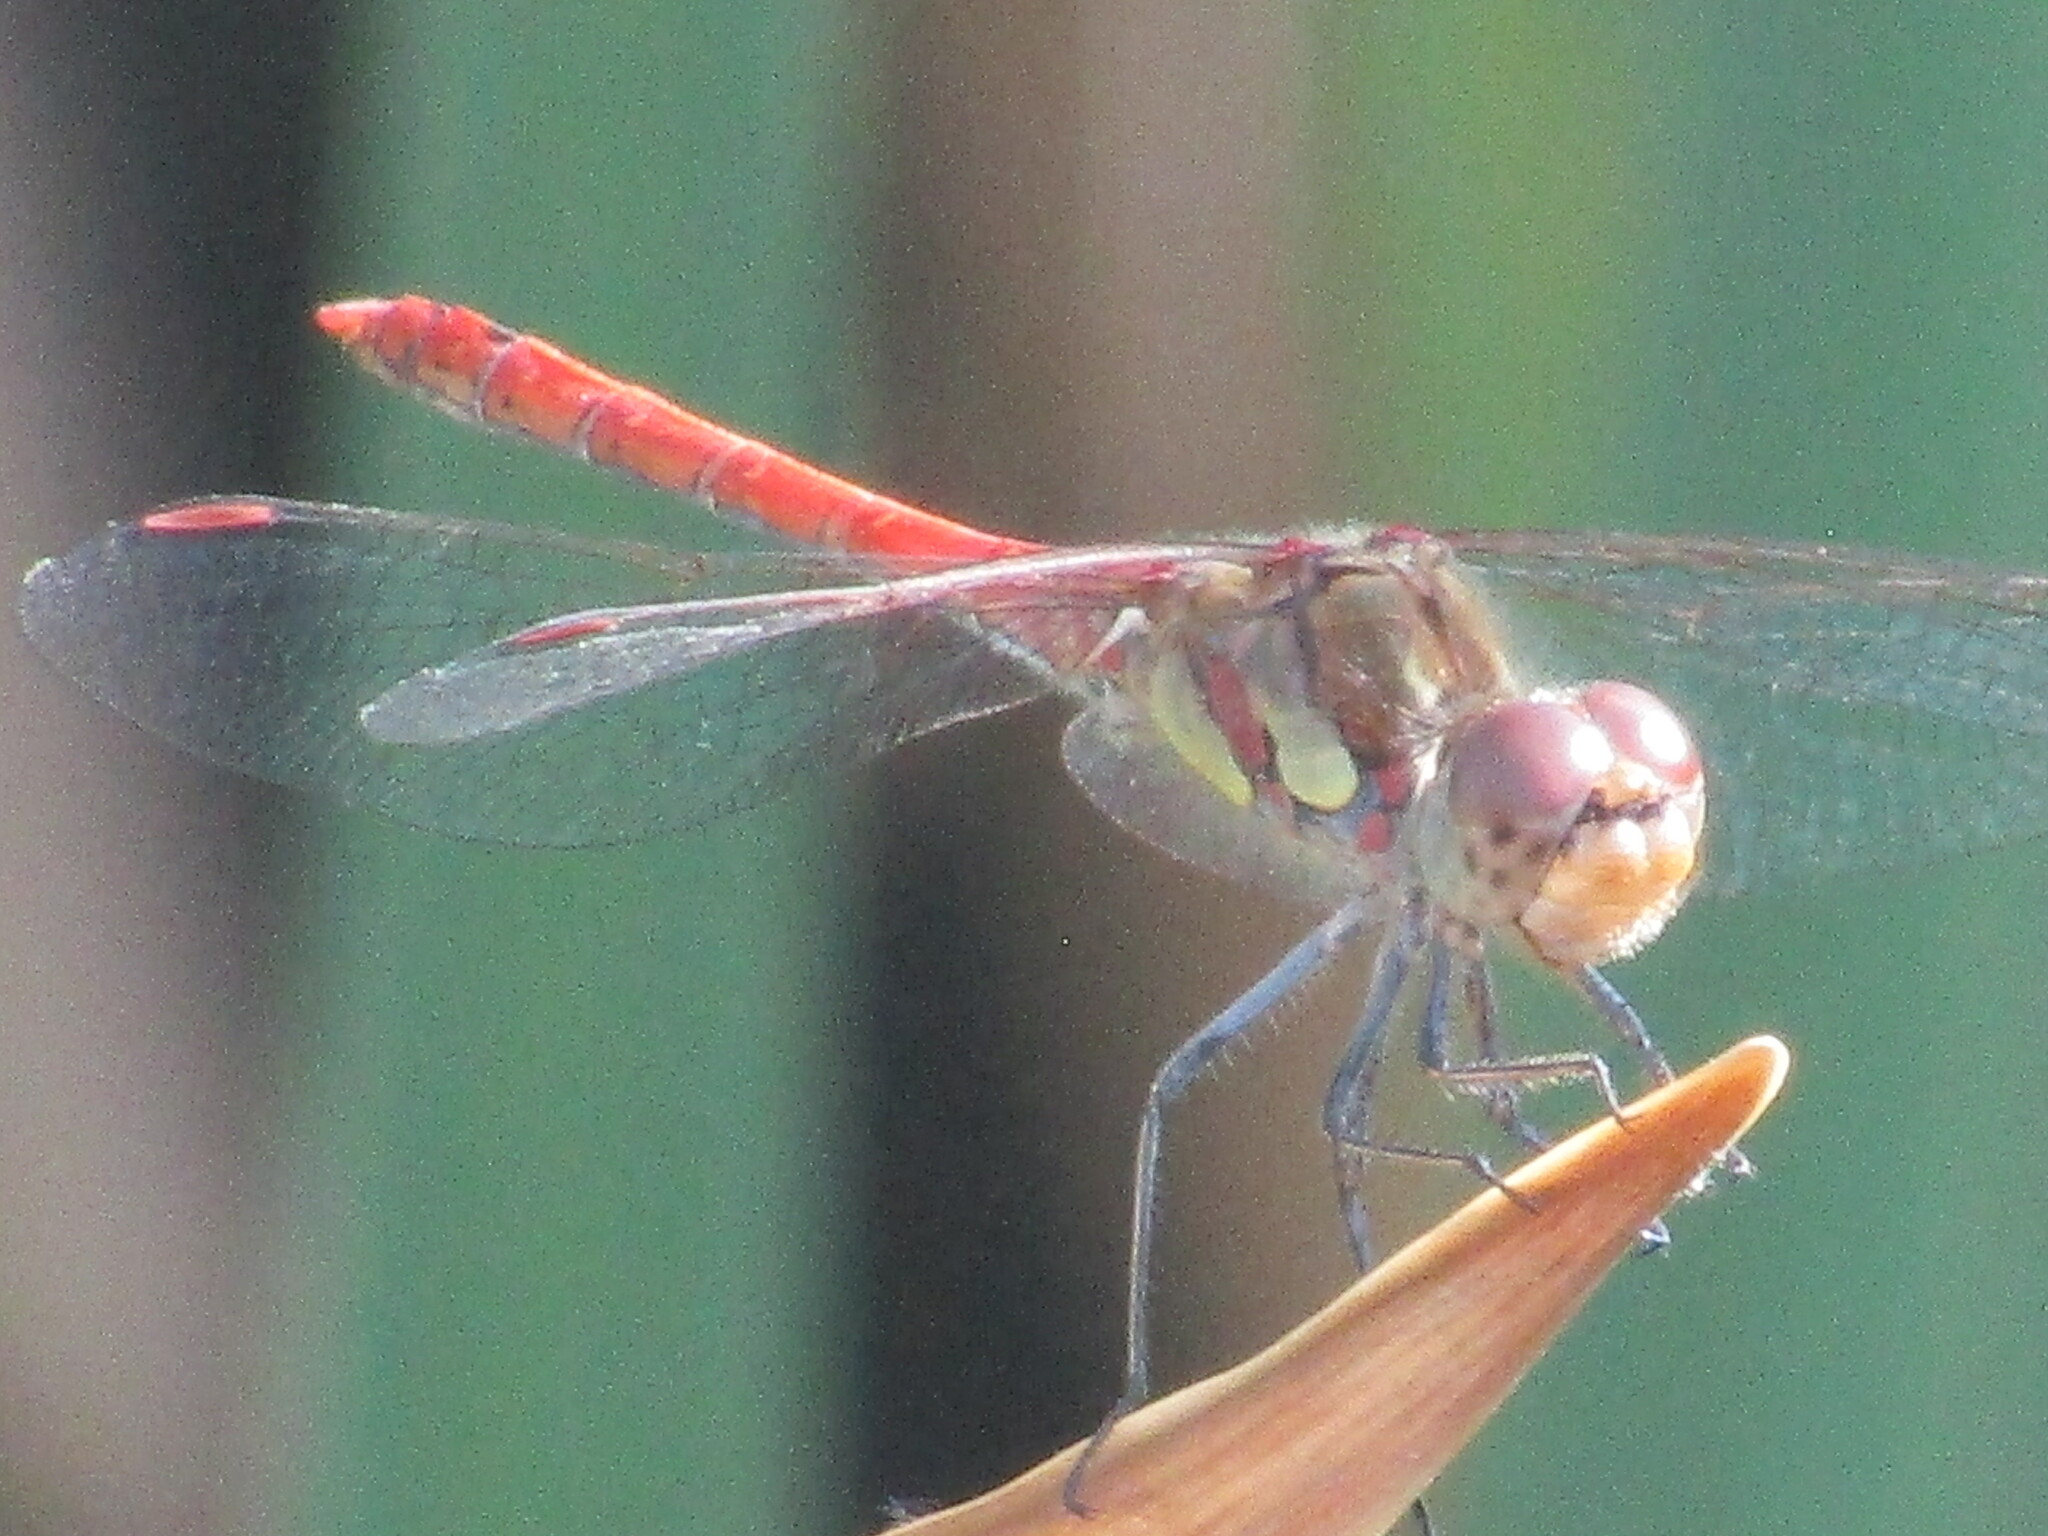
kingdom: Animalia
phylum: Arthropoda
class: Insecta
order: Odonata
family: Libellulidae
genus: Sympetrum
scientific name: Sympetrum striolatum
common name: Common darter
